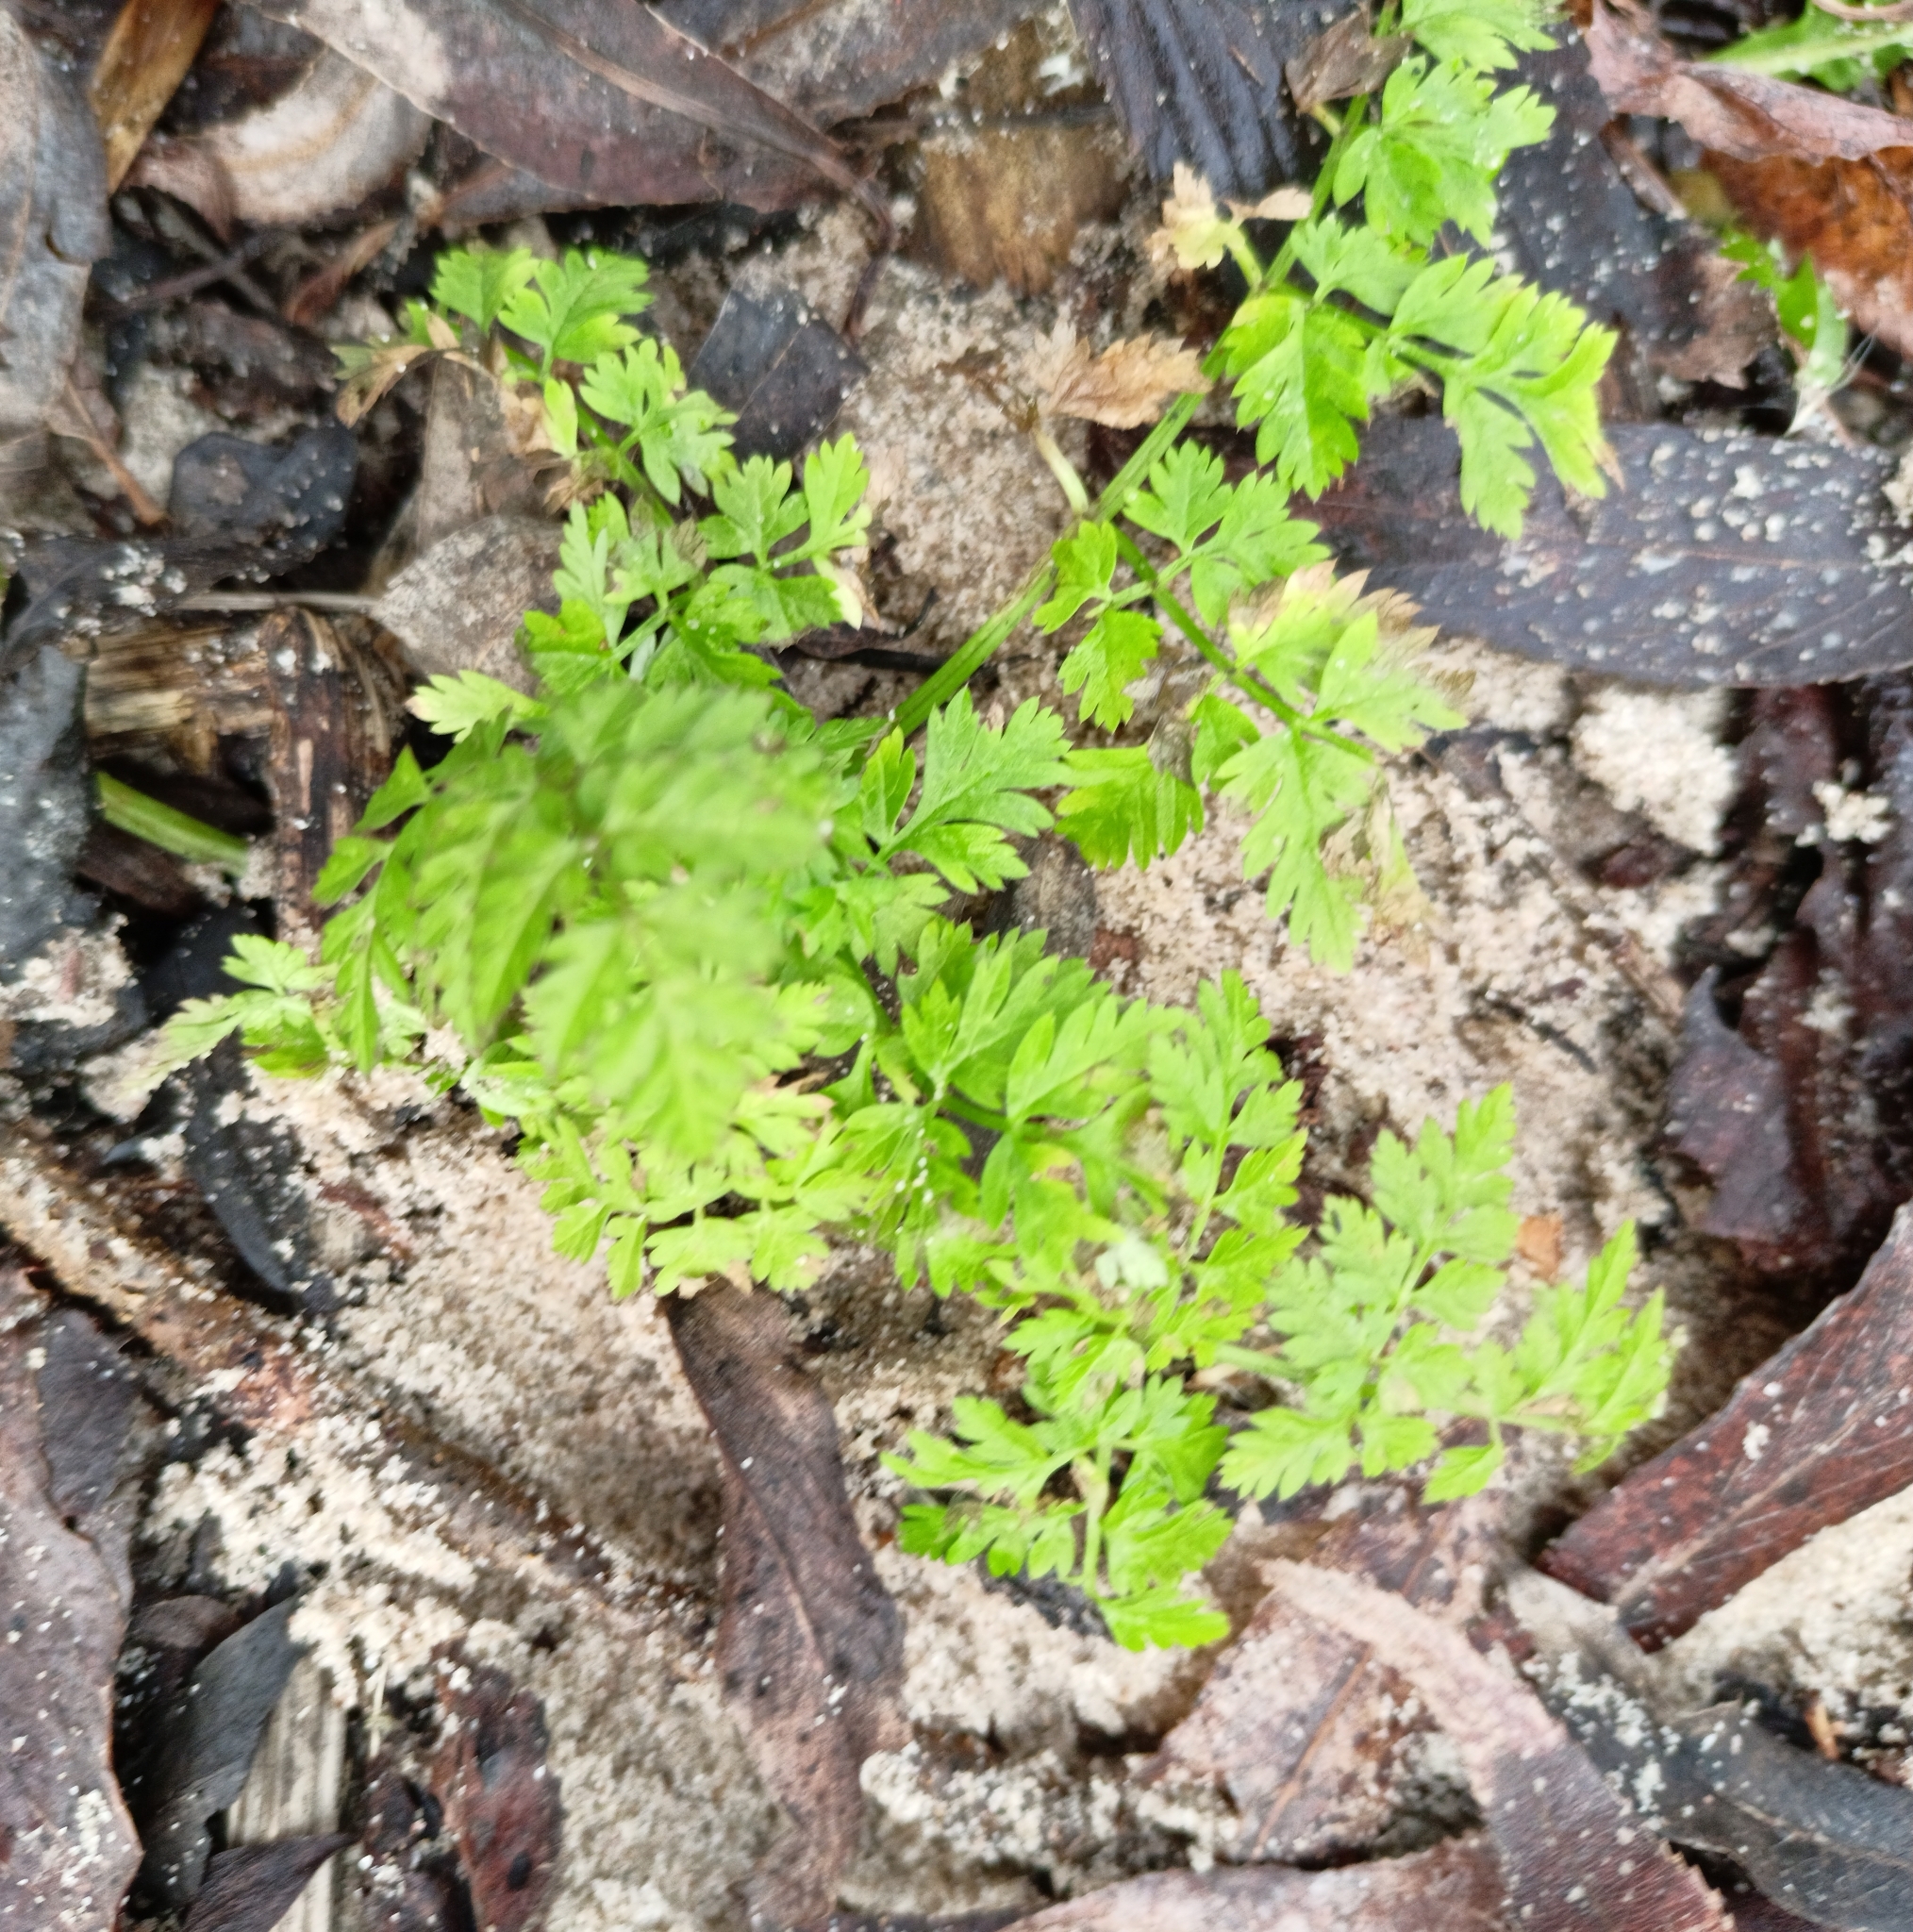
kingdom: Plantae
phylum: Tracheophyta
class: Magnoliopsida
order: Apiales
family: Apiaceae
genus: Anthriscus
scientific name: Anthriscus sylvestris
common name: Cow parsley
